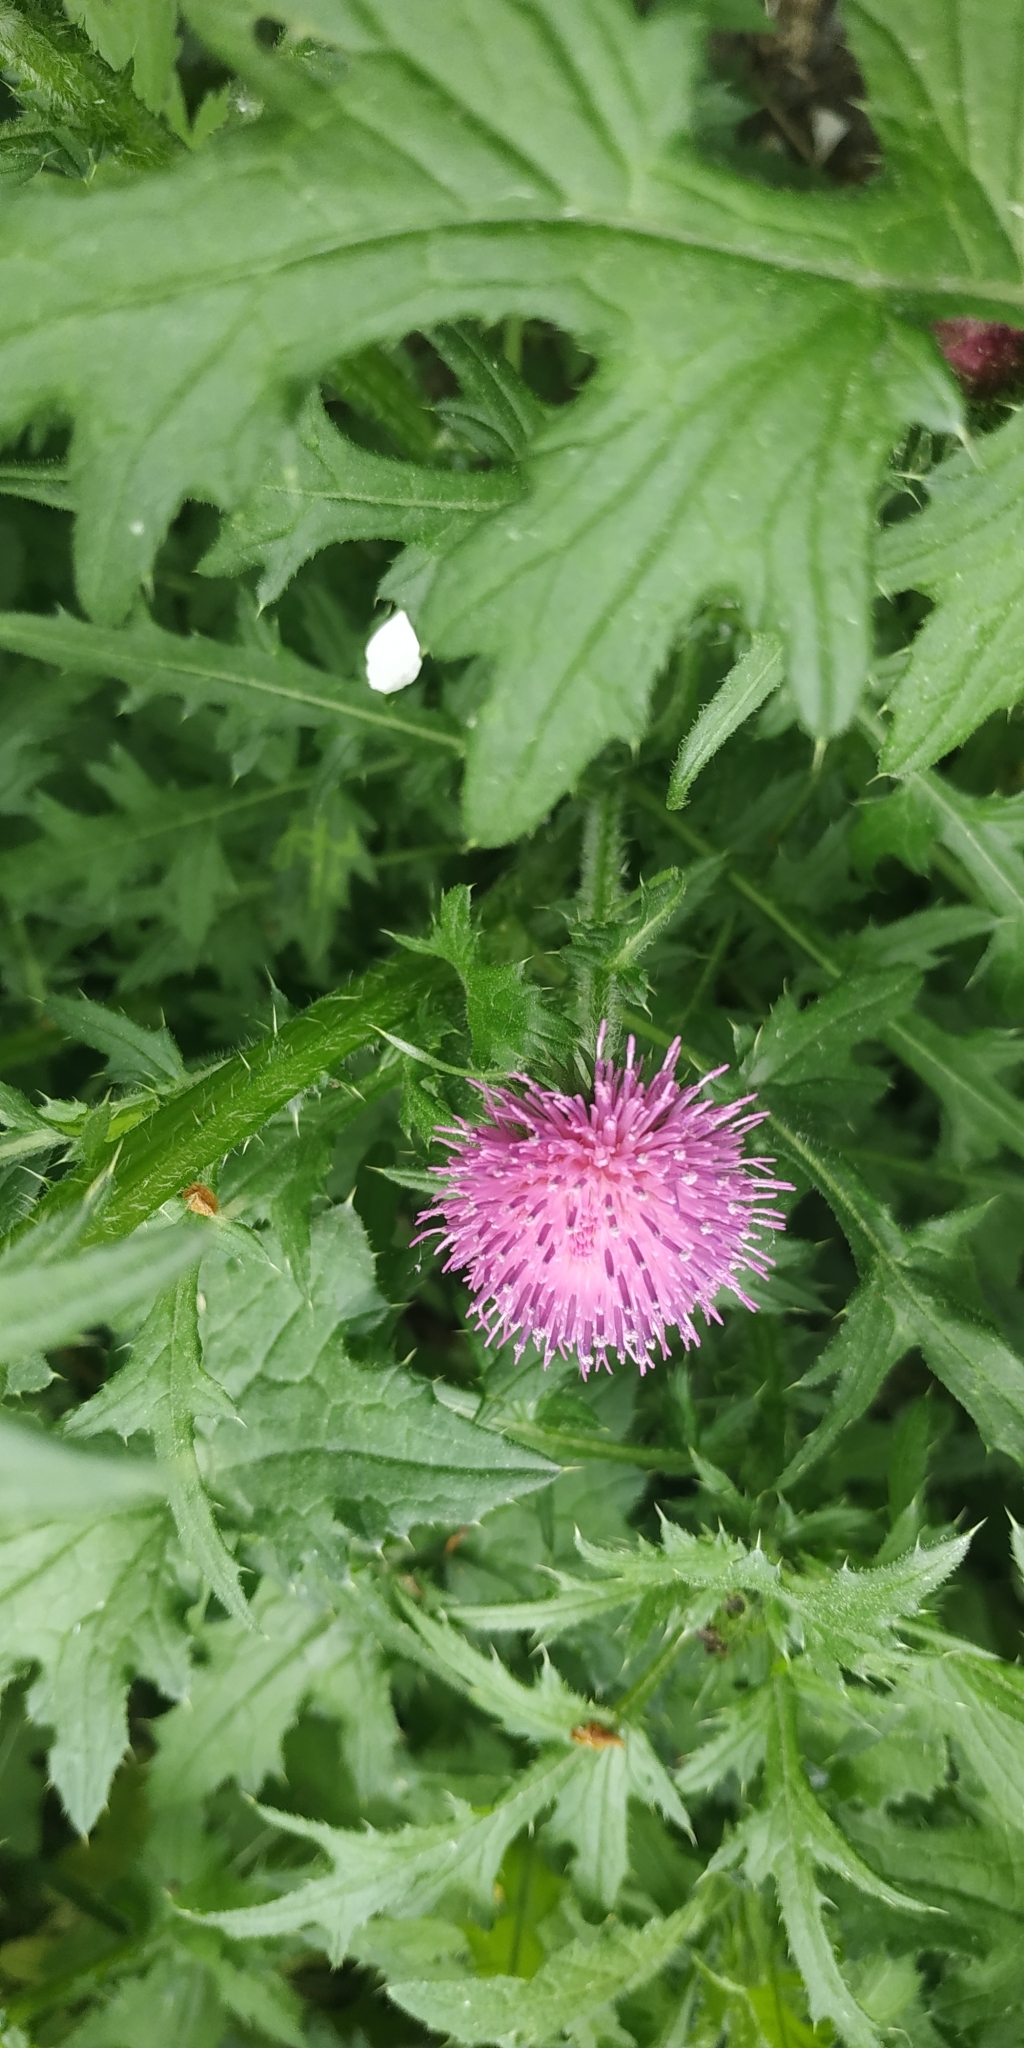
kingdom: Plantae
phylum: Tracheophyta
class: Magnoliopsida
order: Asterales
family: Asteraceae
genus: Carduus
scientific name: Carduus crispus
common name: Welted thistle
